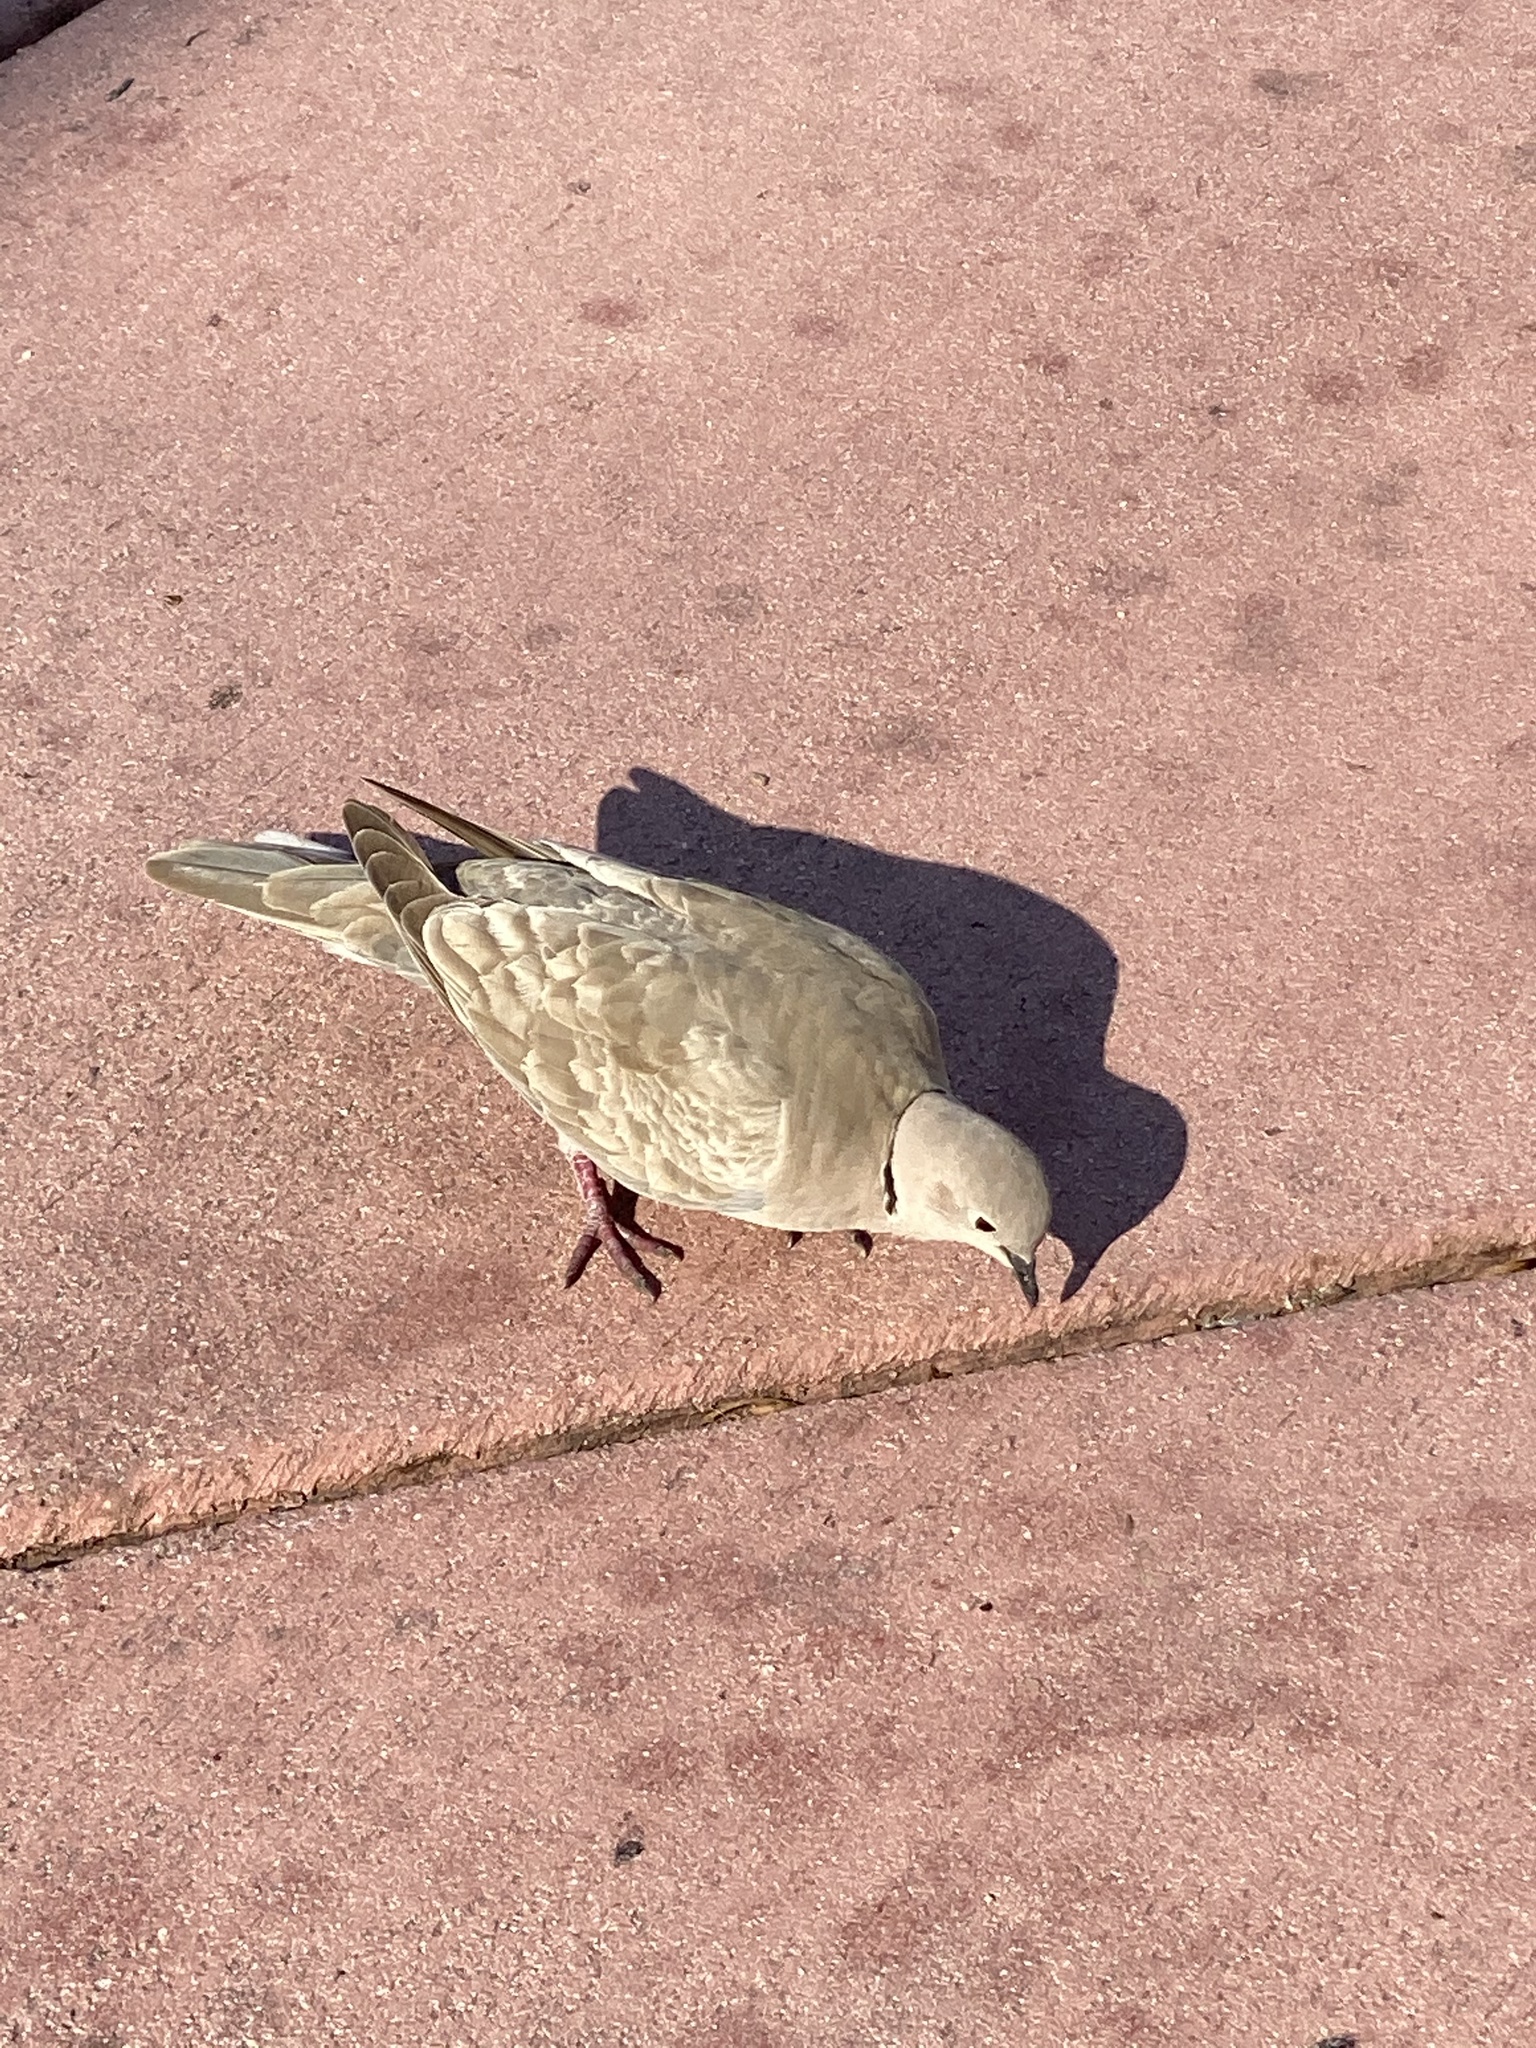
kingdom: Animalia
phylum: Chordata
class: Aves
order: Columbiformes
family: Columbidae
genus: Streptopelia
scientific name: Streptopelia decaocto
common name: Eurasian collared dove
